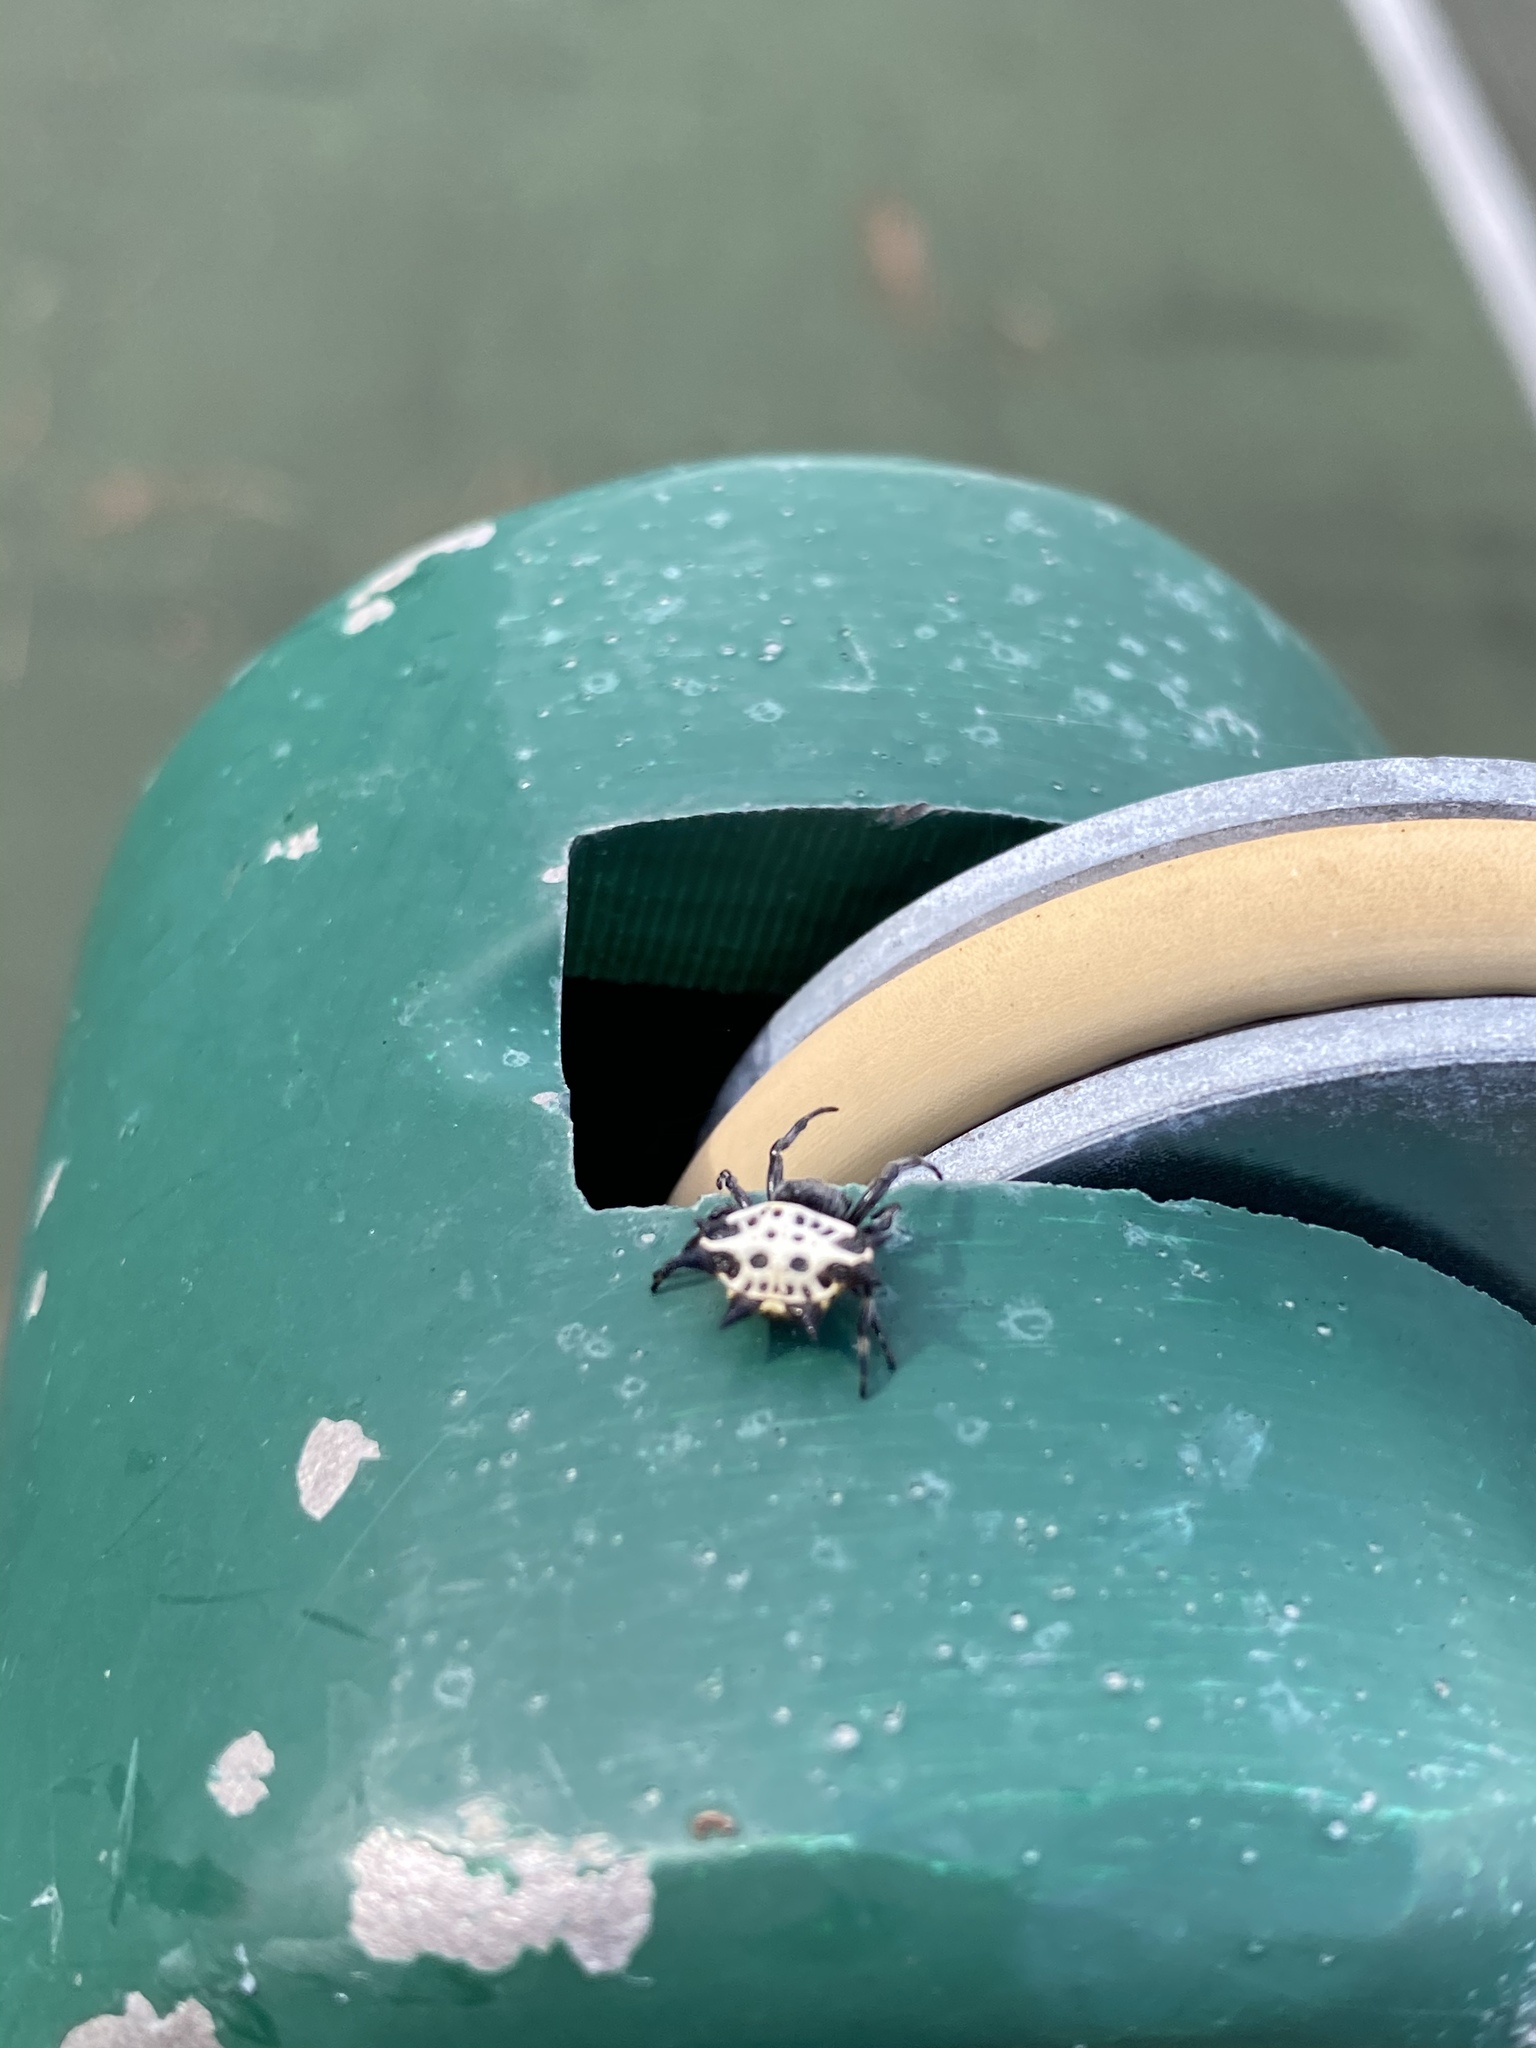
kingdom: Animalia
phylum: Arthropoda
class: Arachnida
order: Araneae
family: Araneidae
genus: Gasteracantha
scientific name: Gasteracantha cancriformis
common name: Orb weavers
